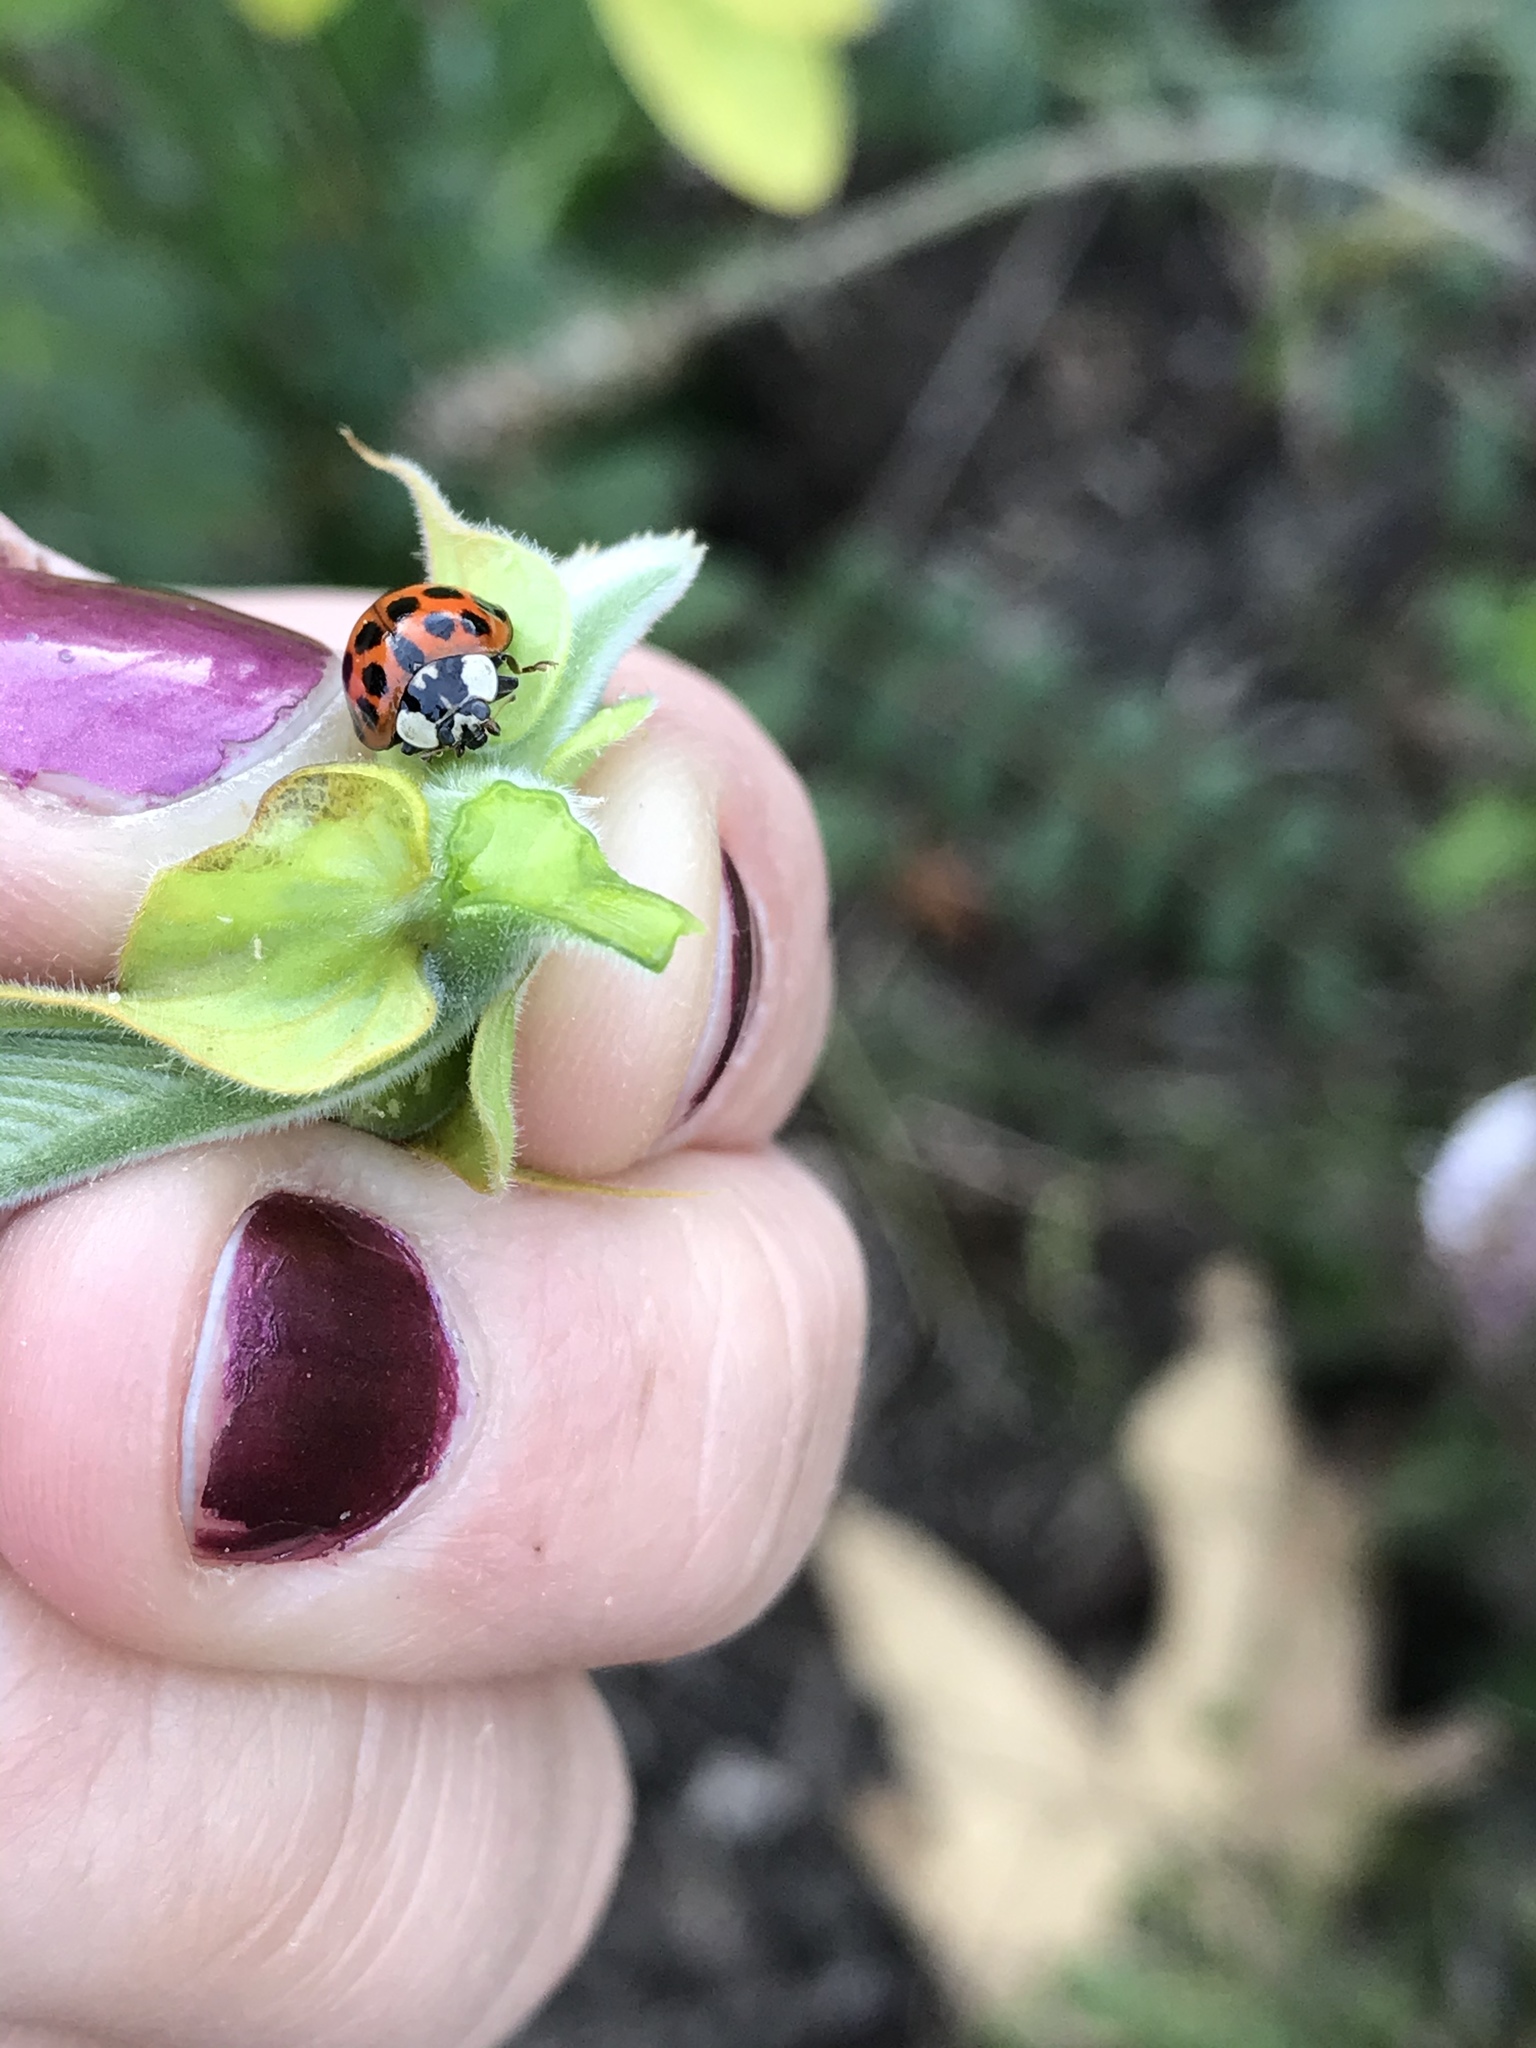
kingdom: Animalia
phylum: Arthropoda
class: Insecta
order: Coleoptera
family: Coccinellidae
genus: Harmonia
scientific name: Harmonia axyridis
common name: Harlequin ladybird
